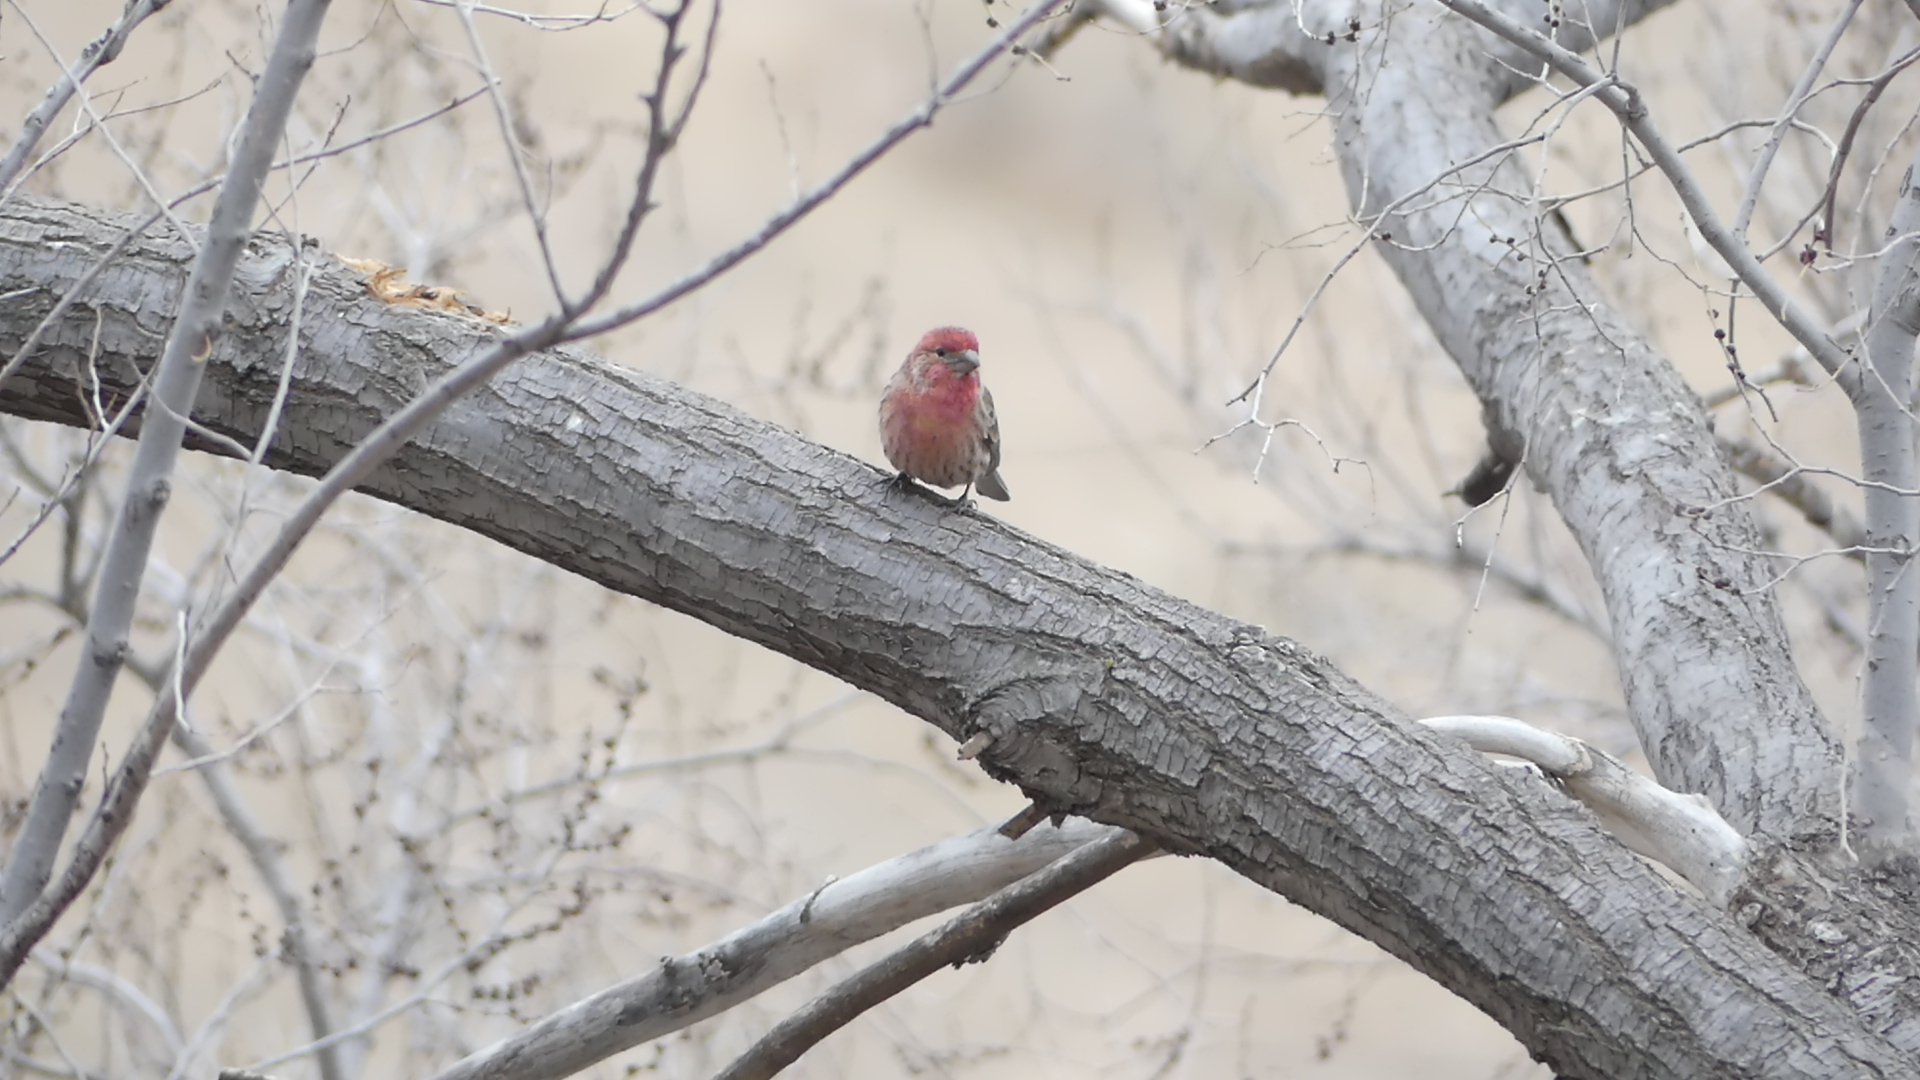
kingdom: Animalia
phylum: Chordata
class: Aves
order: Passeriformes
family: Fringillidae
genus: Haemorhous
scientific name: Haemorhous mexicanus
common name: House finch
